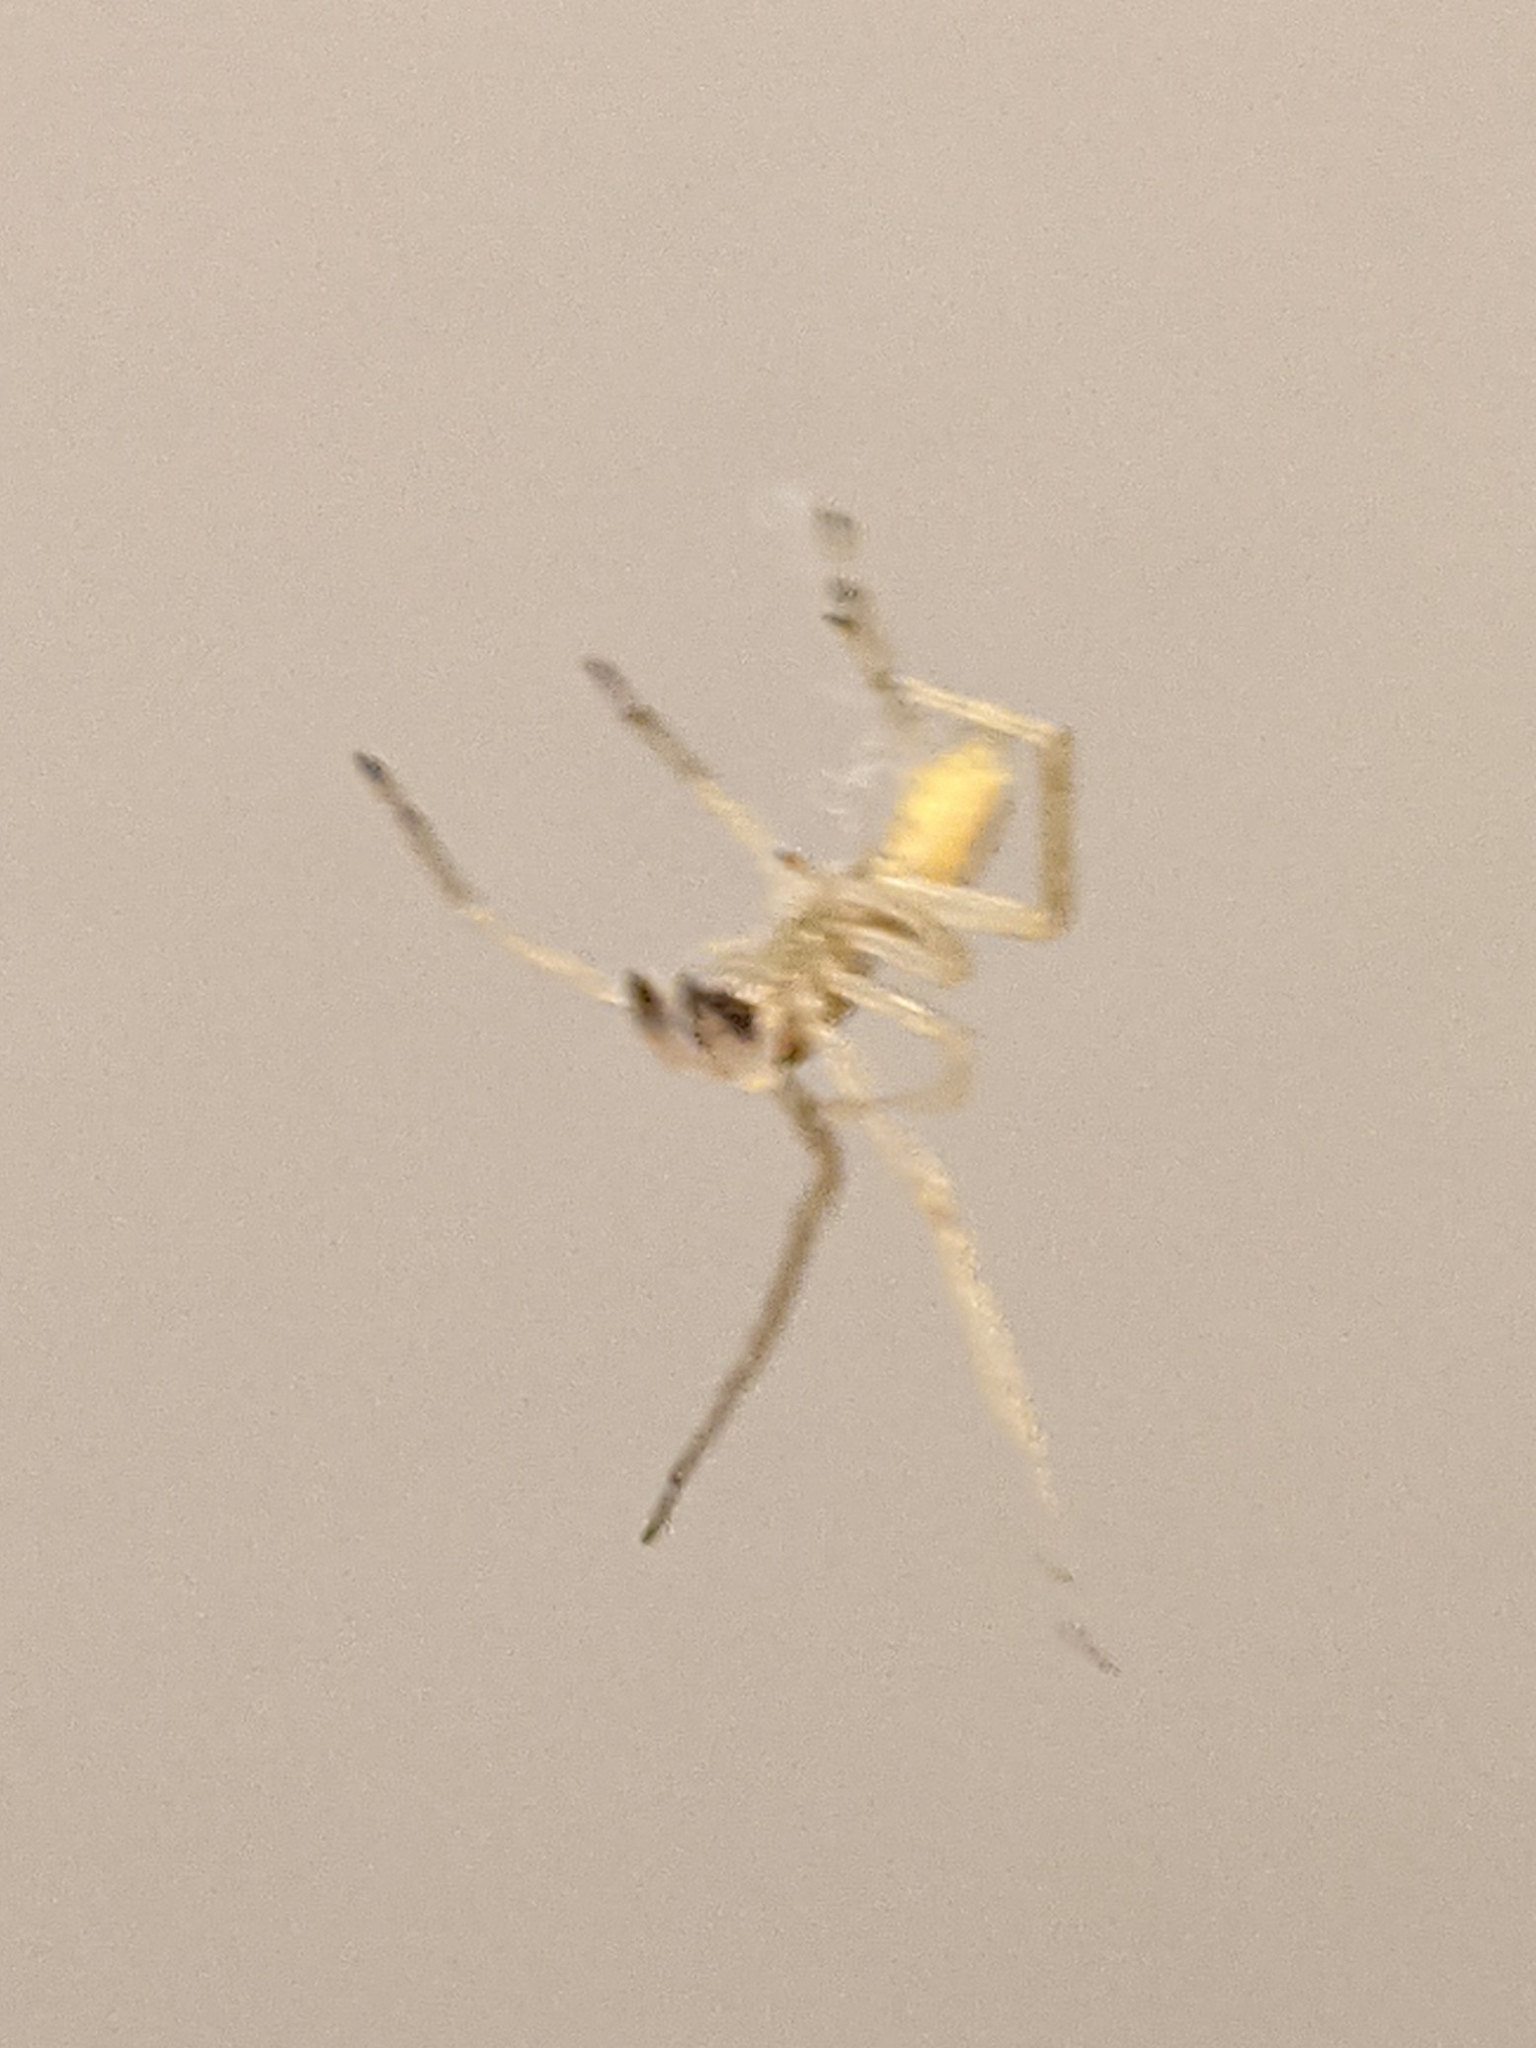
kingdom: Animalia
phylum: Arthropoda
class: Arachnida
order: Araneae
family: Cheiracanthiidae
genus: Cheiracanthium
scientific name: Cheiracanthium mildei
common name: Northern yellow sac spider
